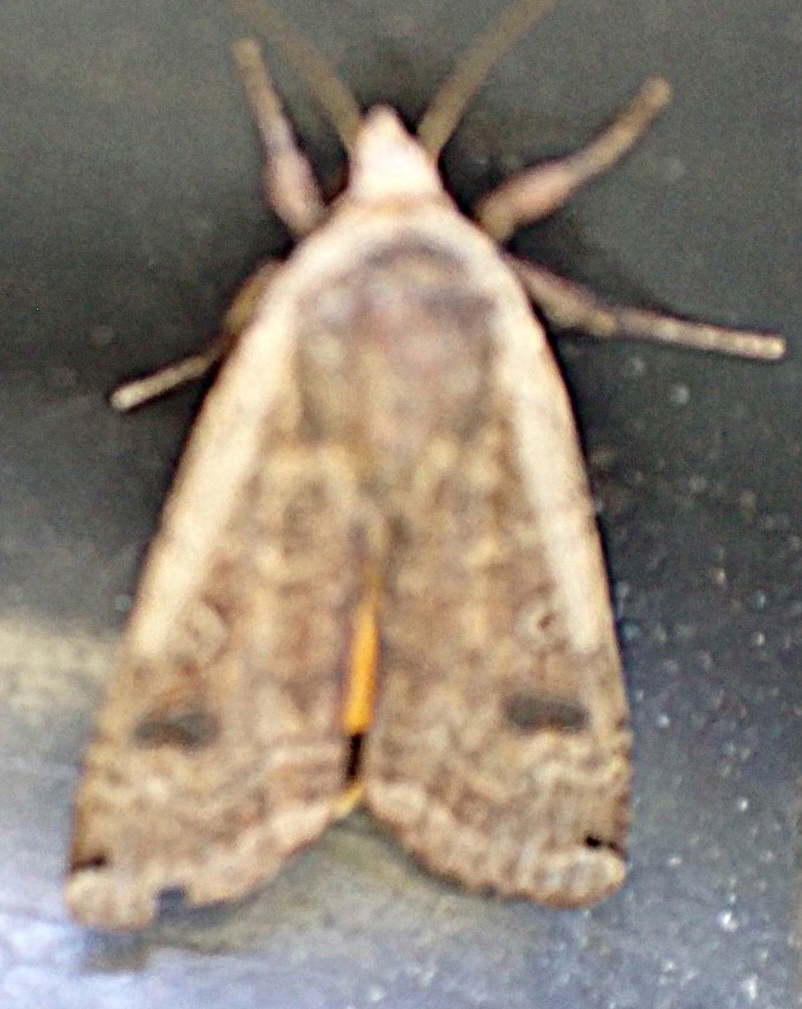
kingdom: Animalia
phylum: Arthropoda
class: Insecta
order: Lepidoptera
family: Noctuidae
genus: Noctua
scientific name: Noctua pronuba
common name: Large yellow underwing
